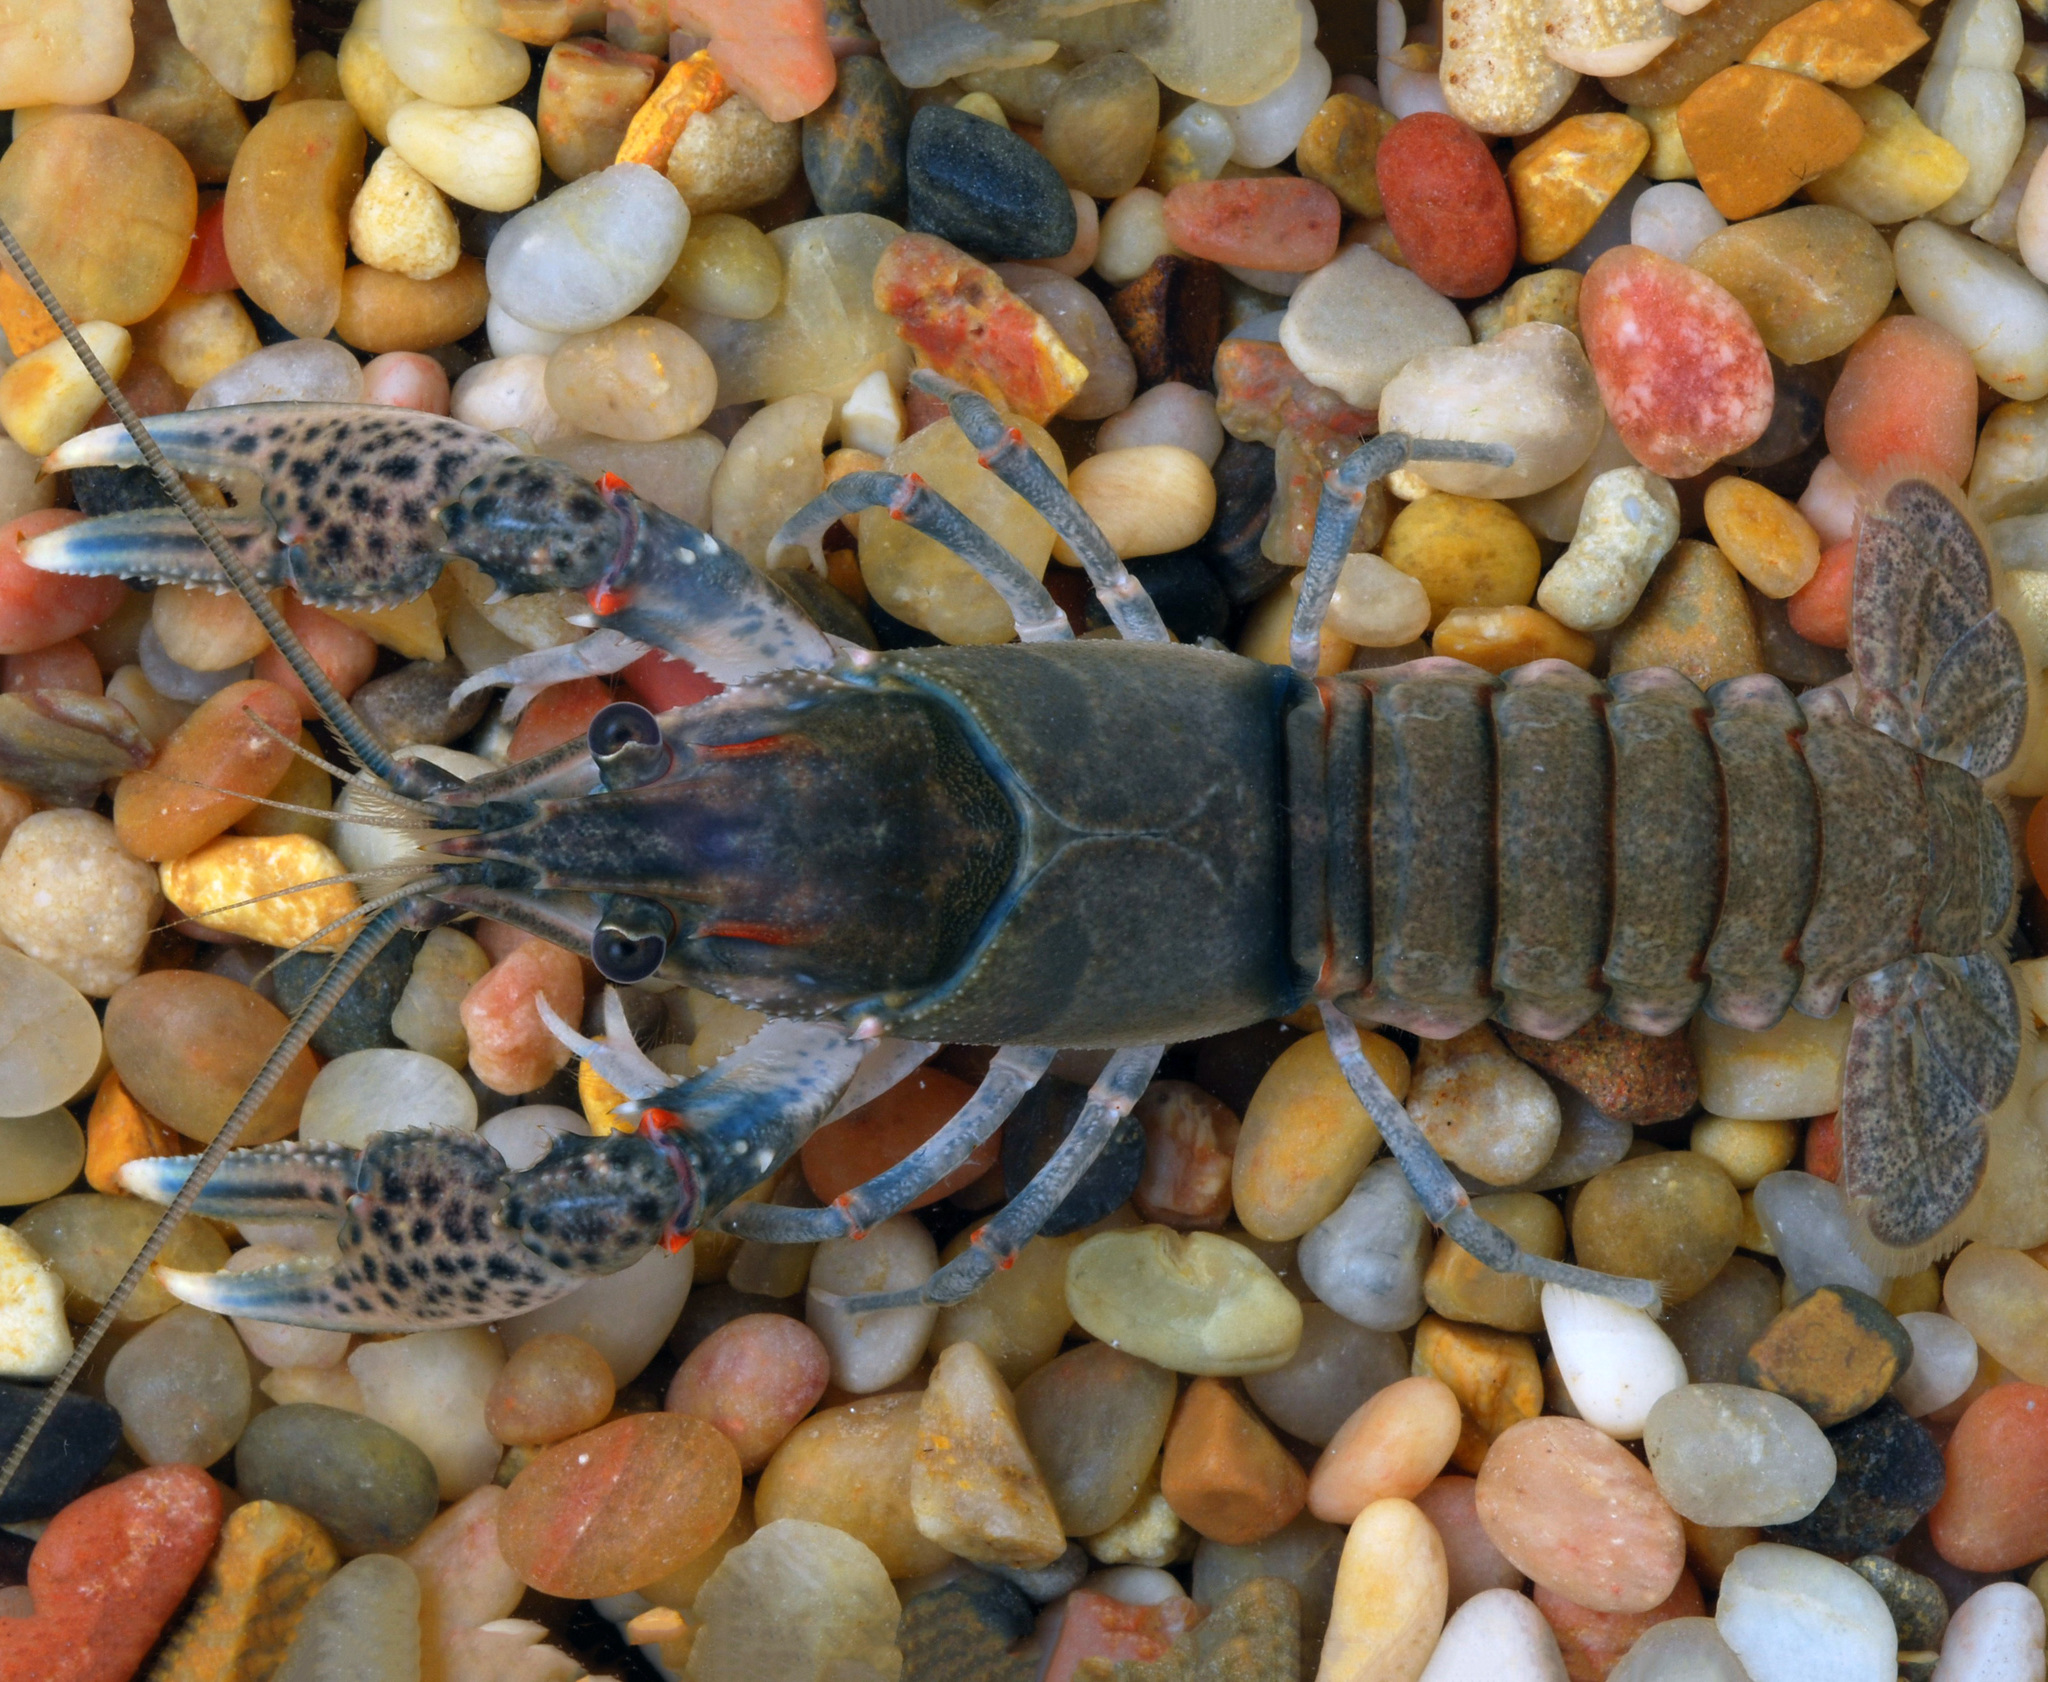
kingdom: Animalia
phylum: Arthropoda
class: Malacostraca
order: Decapoda
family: Cambaridae
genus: Faxonius
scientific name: Faxonius texanus
